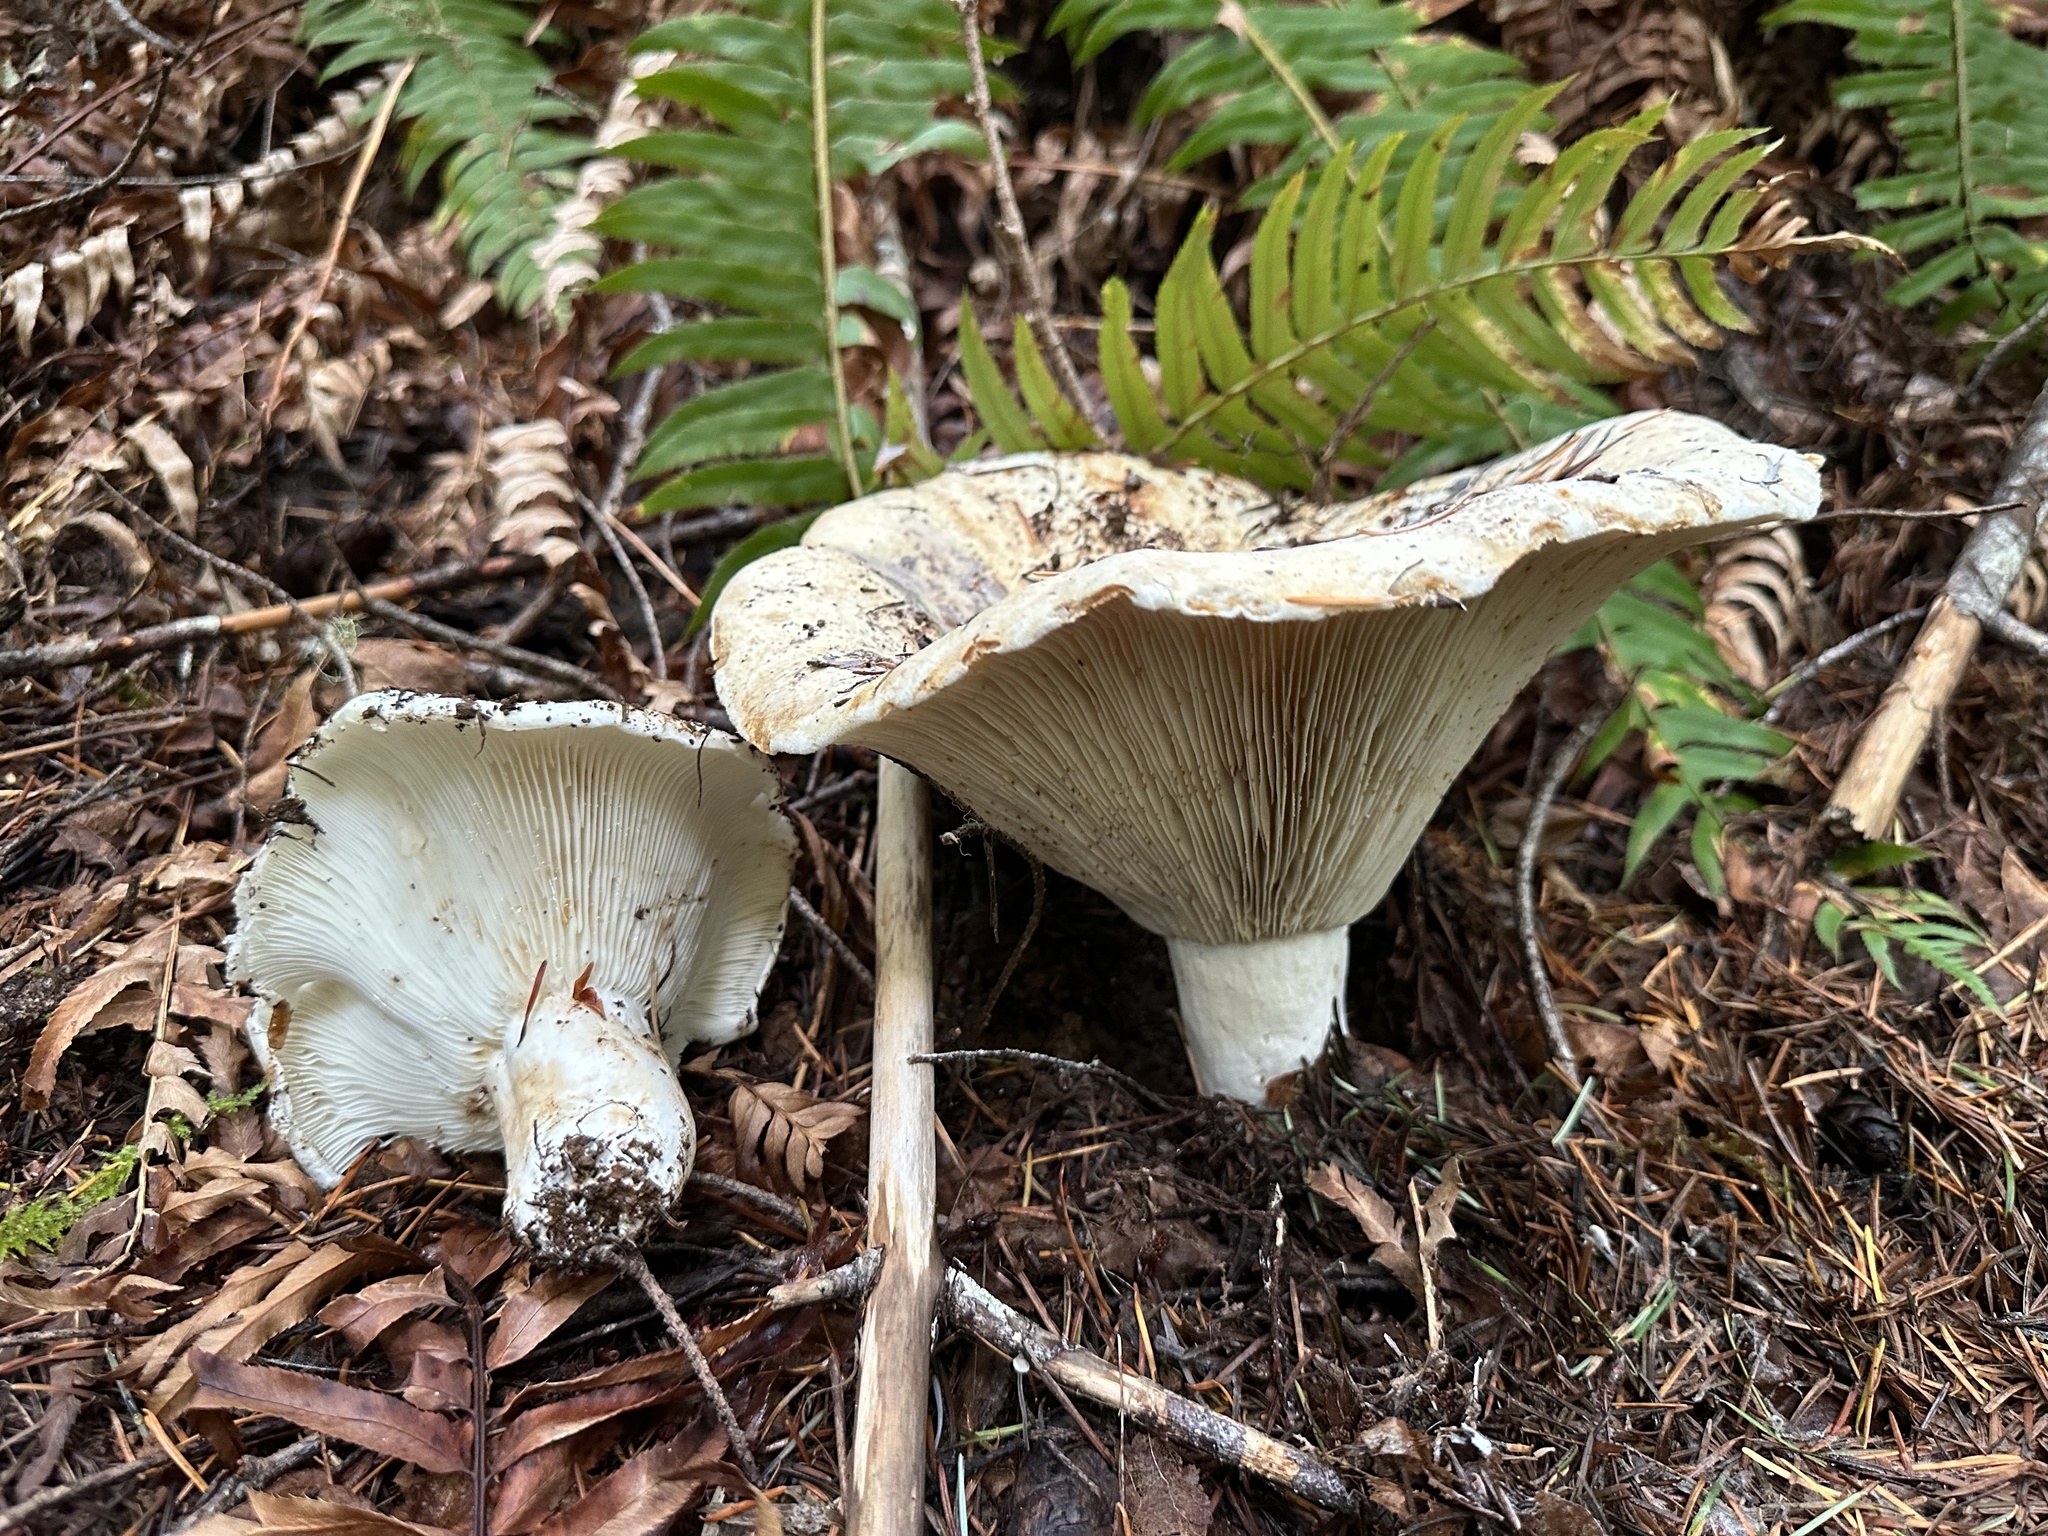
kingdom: Fungi
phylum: Basidiomycota
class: Agaricomycetes
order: Russulales
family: Russulaceae
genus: Russula
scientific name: Russula brevipes
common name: Short-stemmed russula
